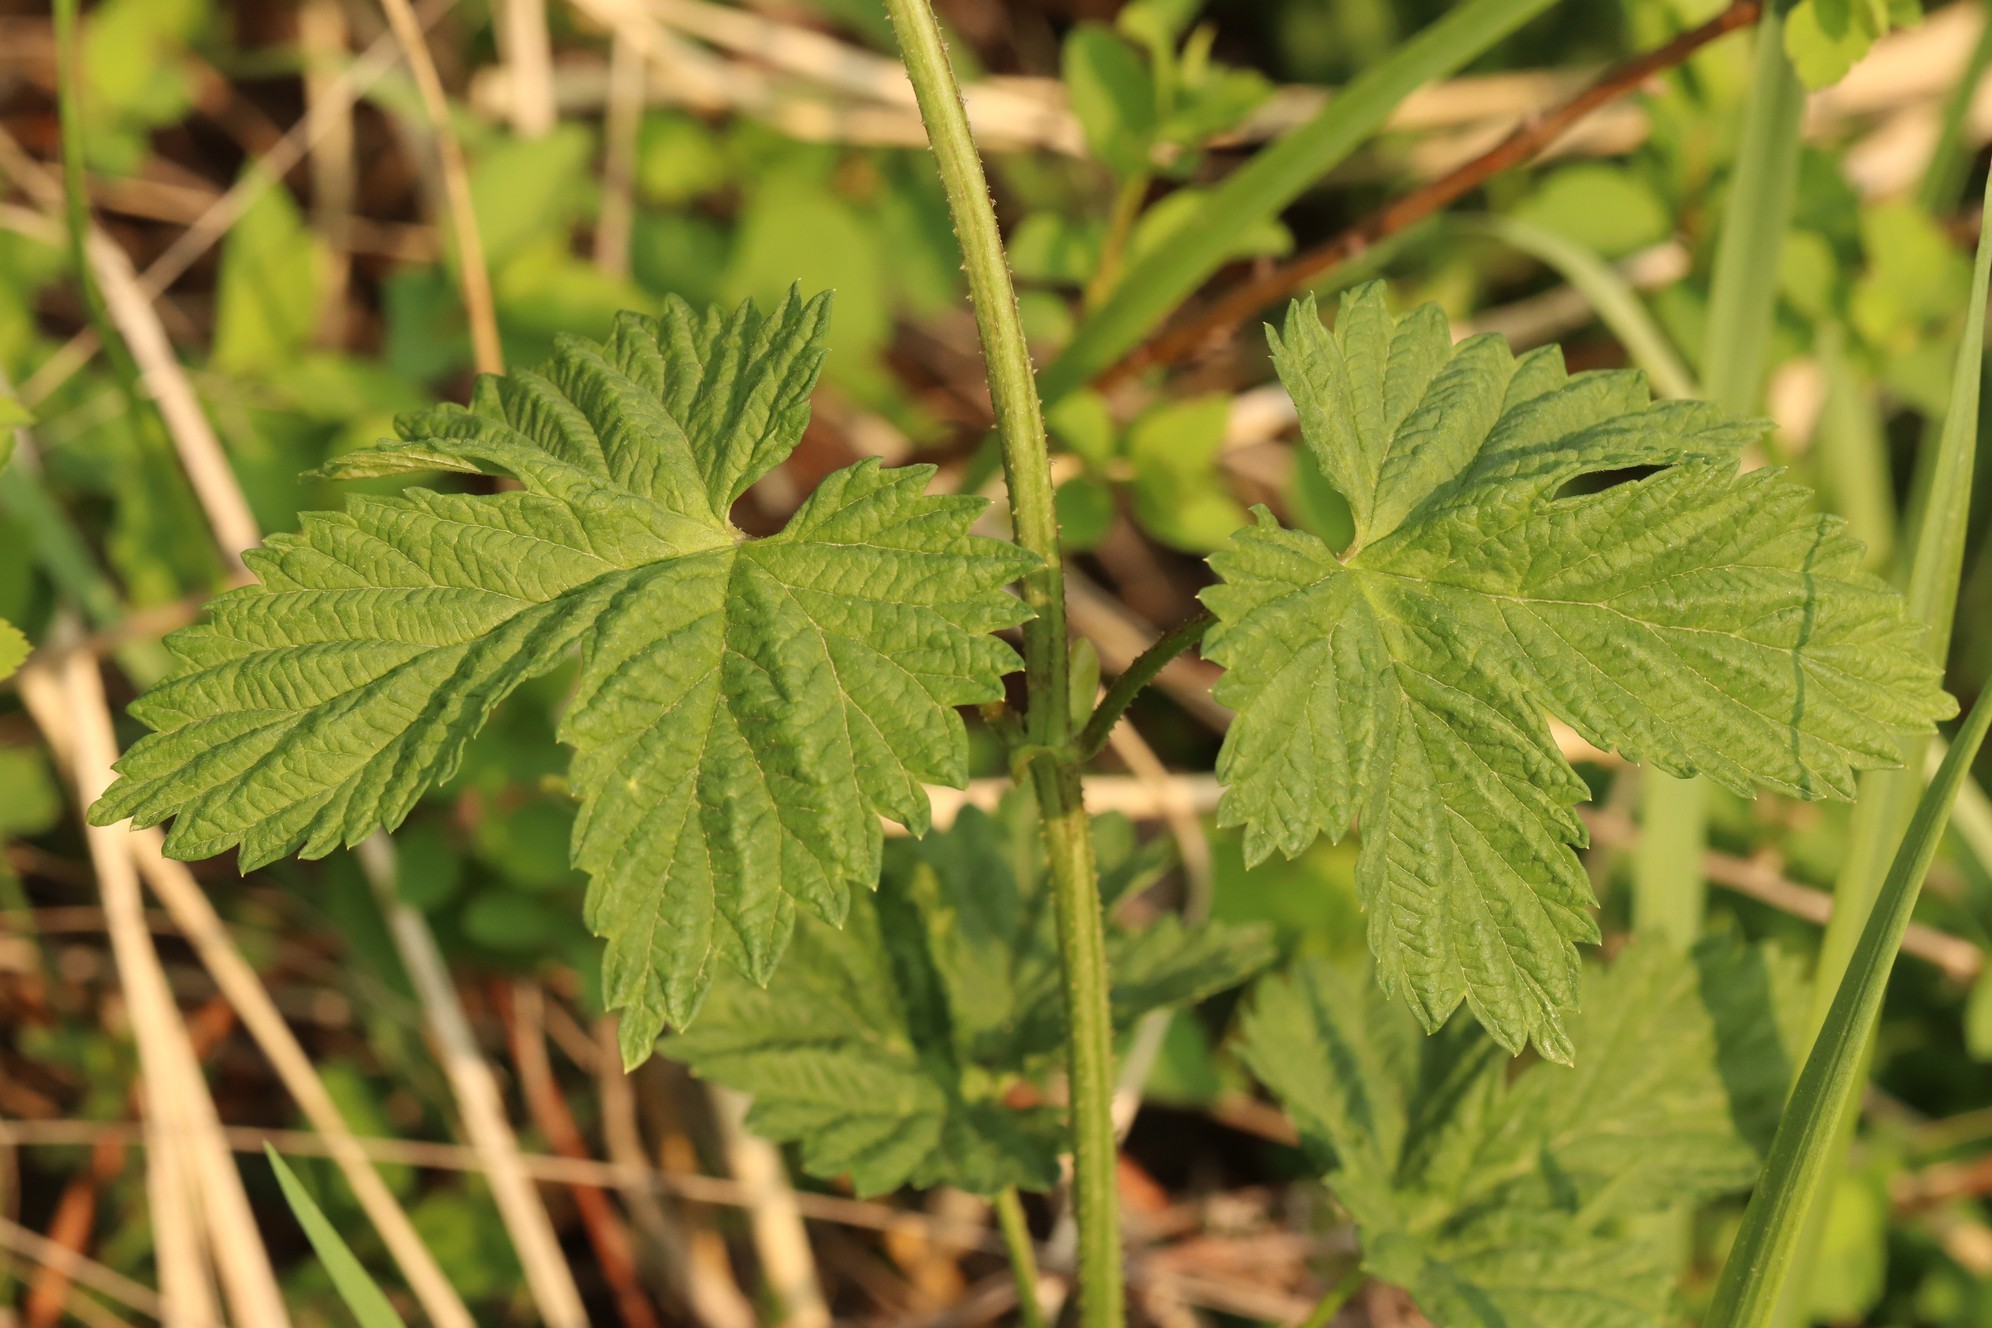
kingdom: Plantae
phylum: Tracheophyta
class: Magnoliopsida
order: Rosales
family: Cannabaceae
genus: Humulus
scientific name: Humulus lupulus
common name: Hop
